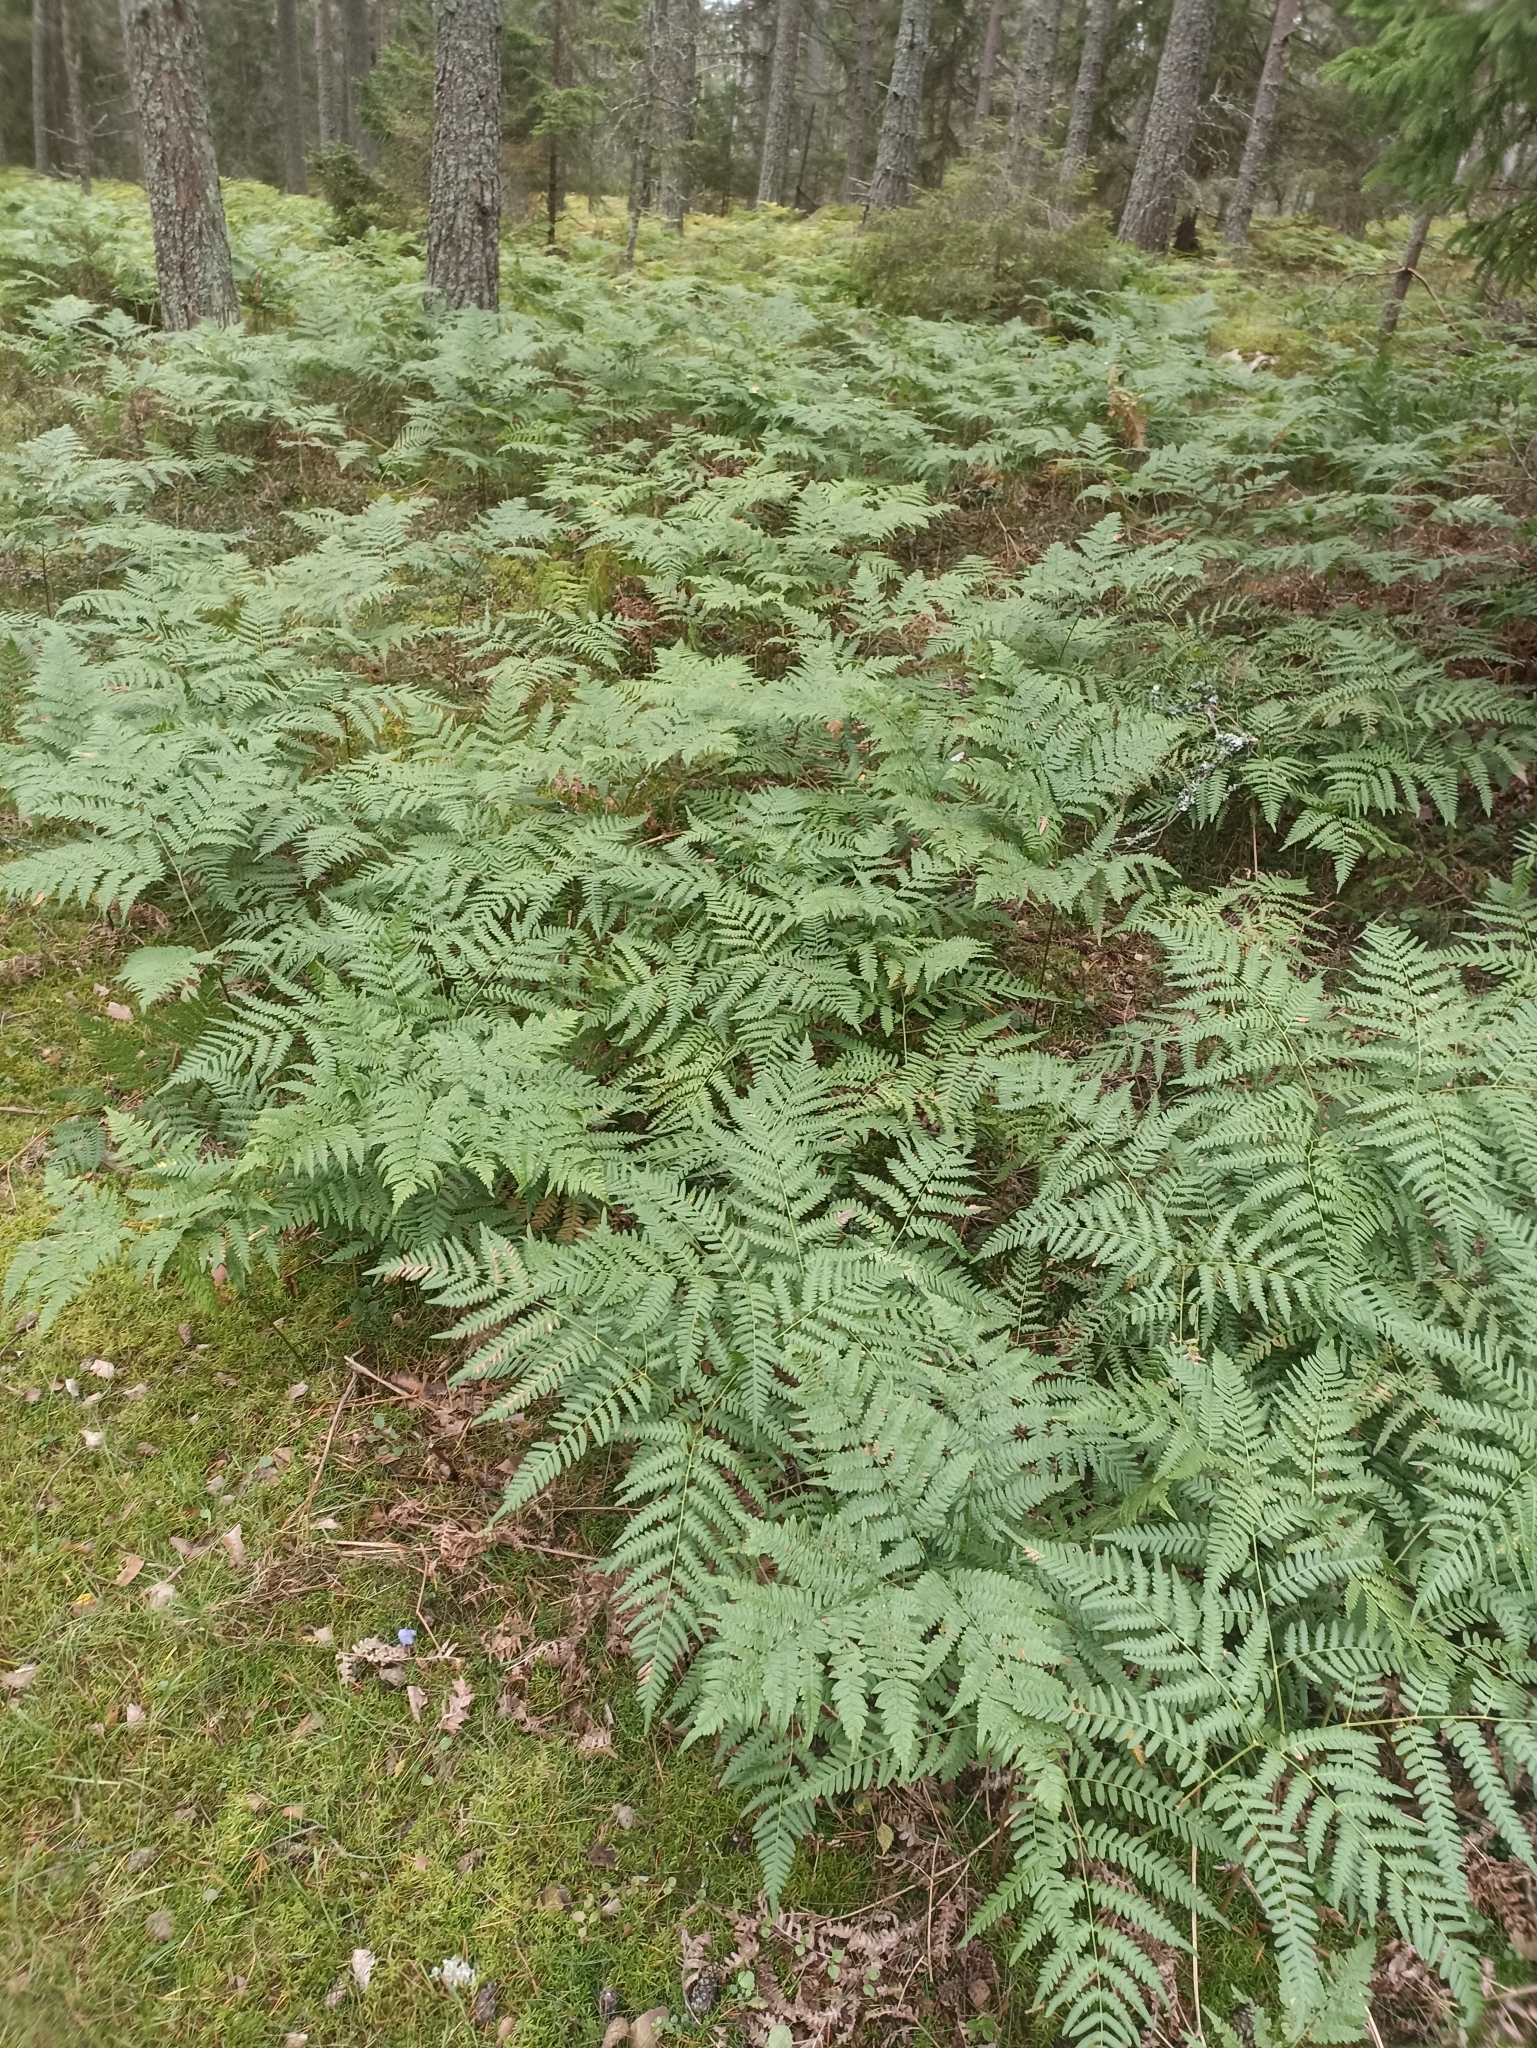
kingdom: Plantae
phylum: Tracheophyta
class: Polypodiopsida
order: Polypodiales
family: Dennstaedtiaceae
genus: Pteridium
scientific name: Pteridium aquilinum
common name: Bracken
